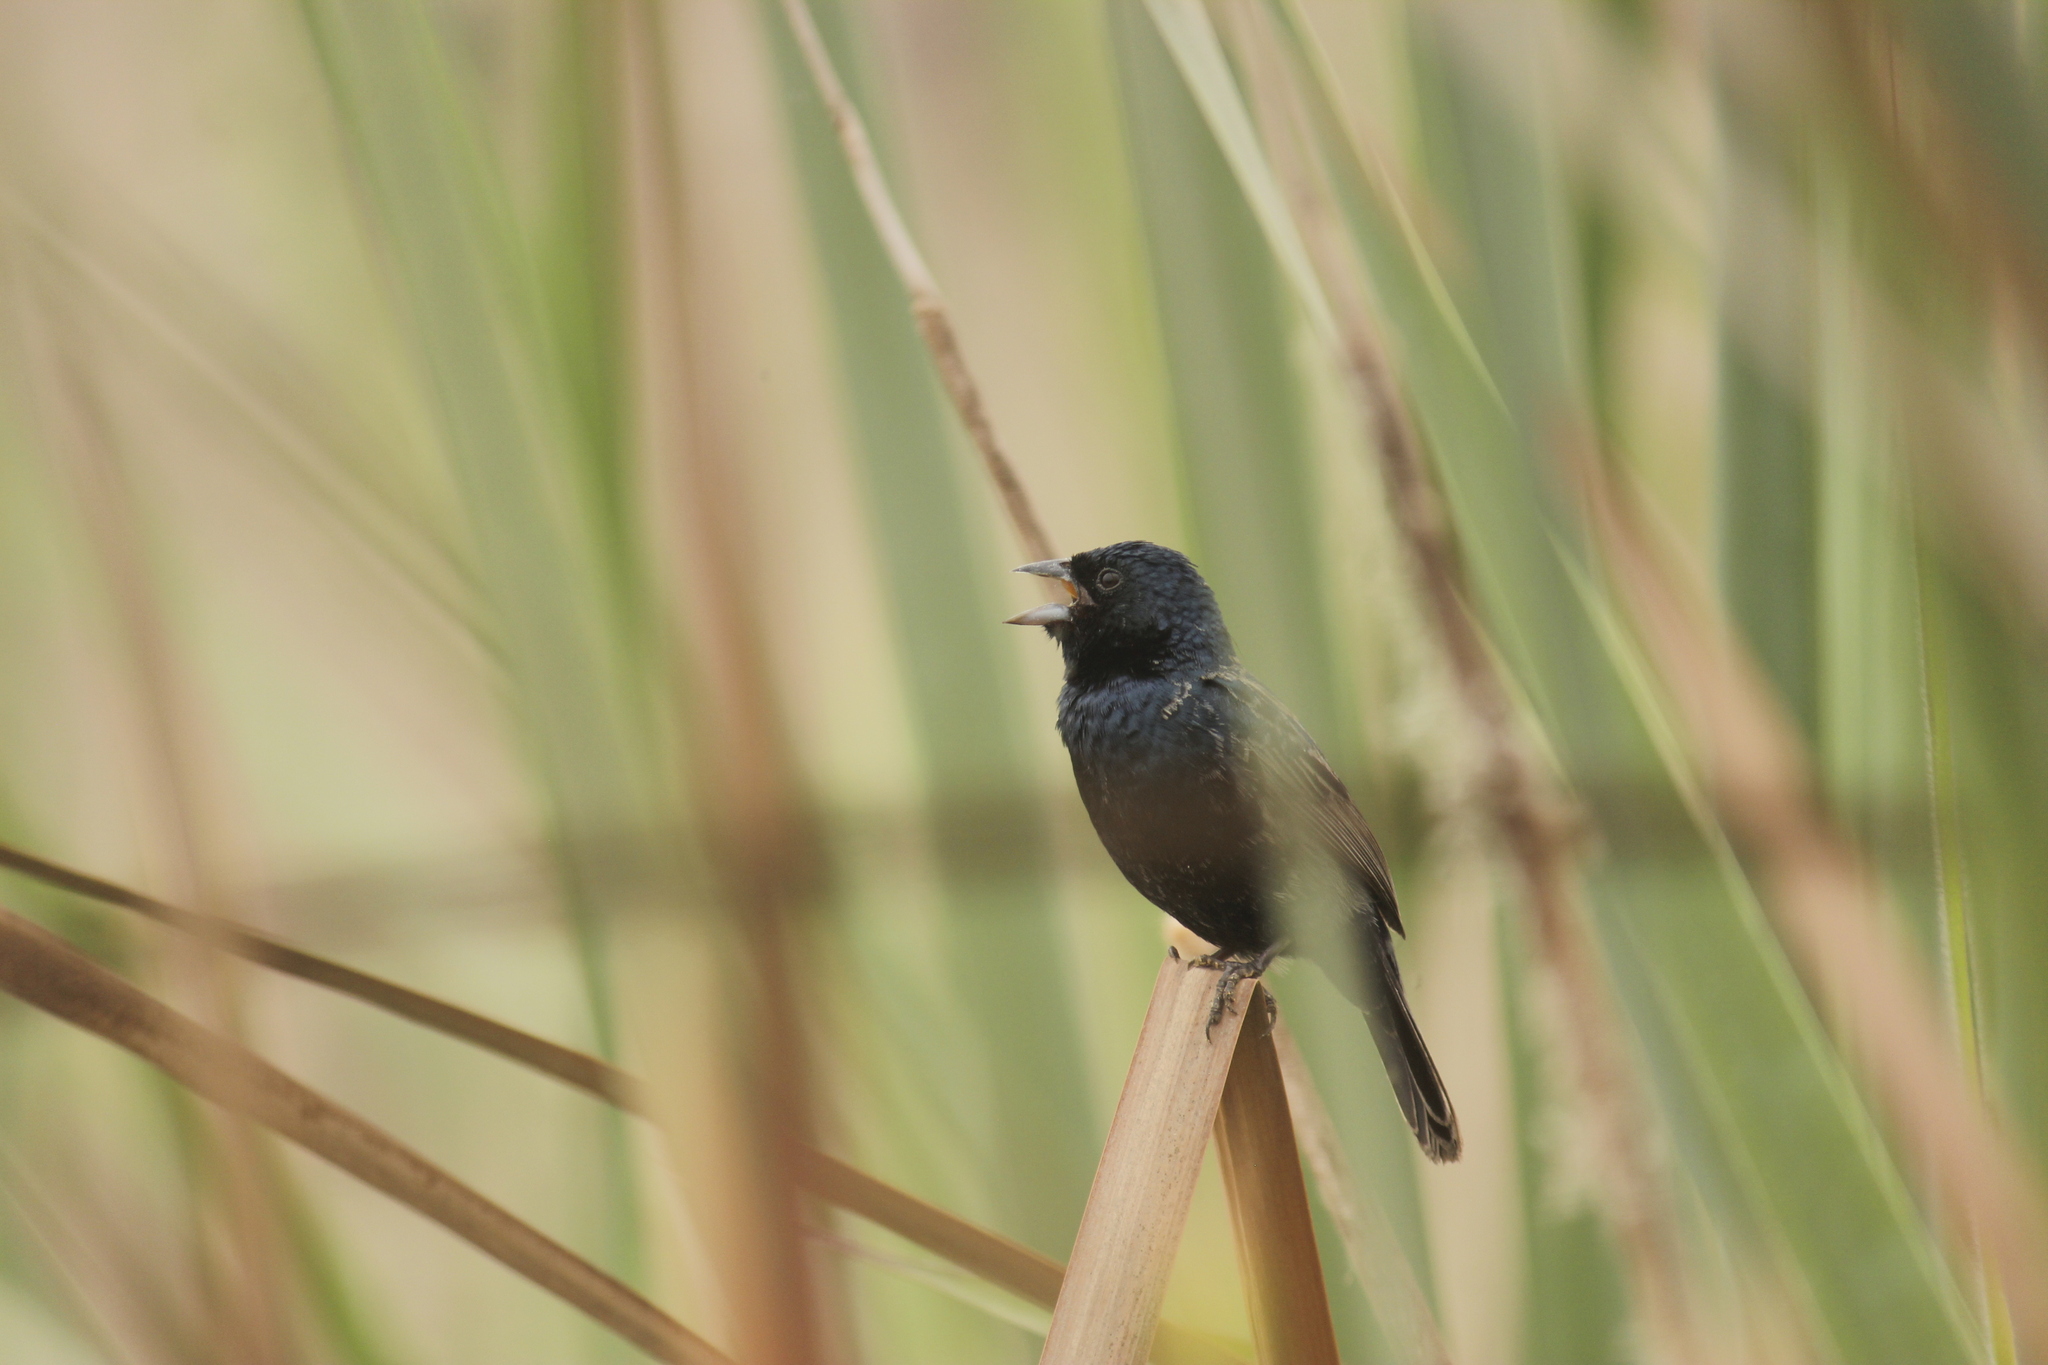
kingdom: Animalia
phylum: Chordata
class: Aves
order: Passeriformes
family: Thraupidae
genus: Volatinia
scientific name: Volatinia jacarina
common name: Blue-black grassquit
